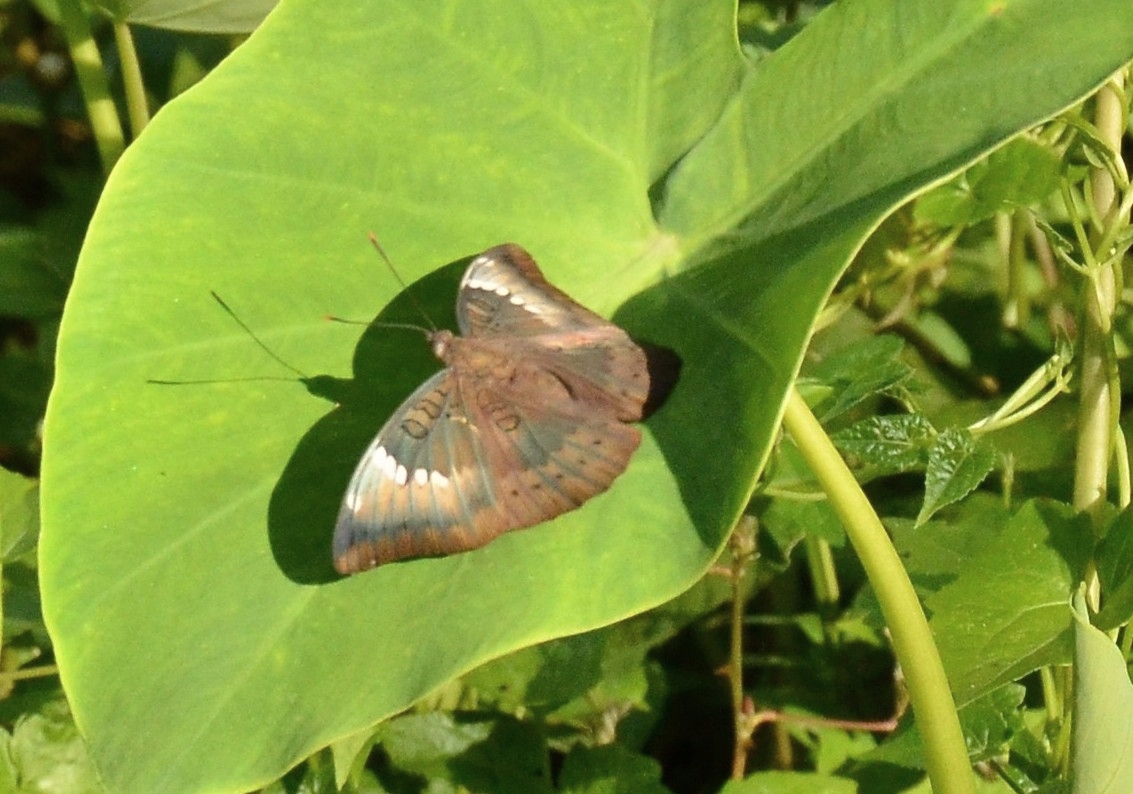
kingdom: Animalia
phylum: Arthropoda
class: Insecta
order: Lepidoptera
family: Nymphalidae
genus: Euthalia
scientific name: Euthalia aconthea
